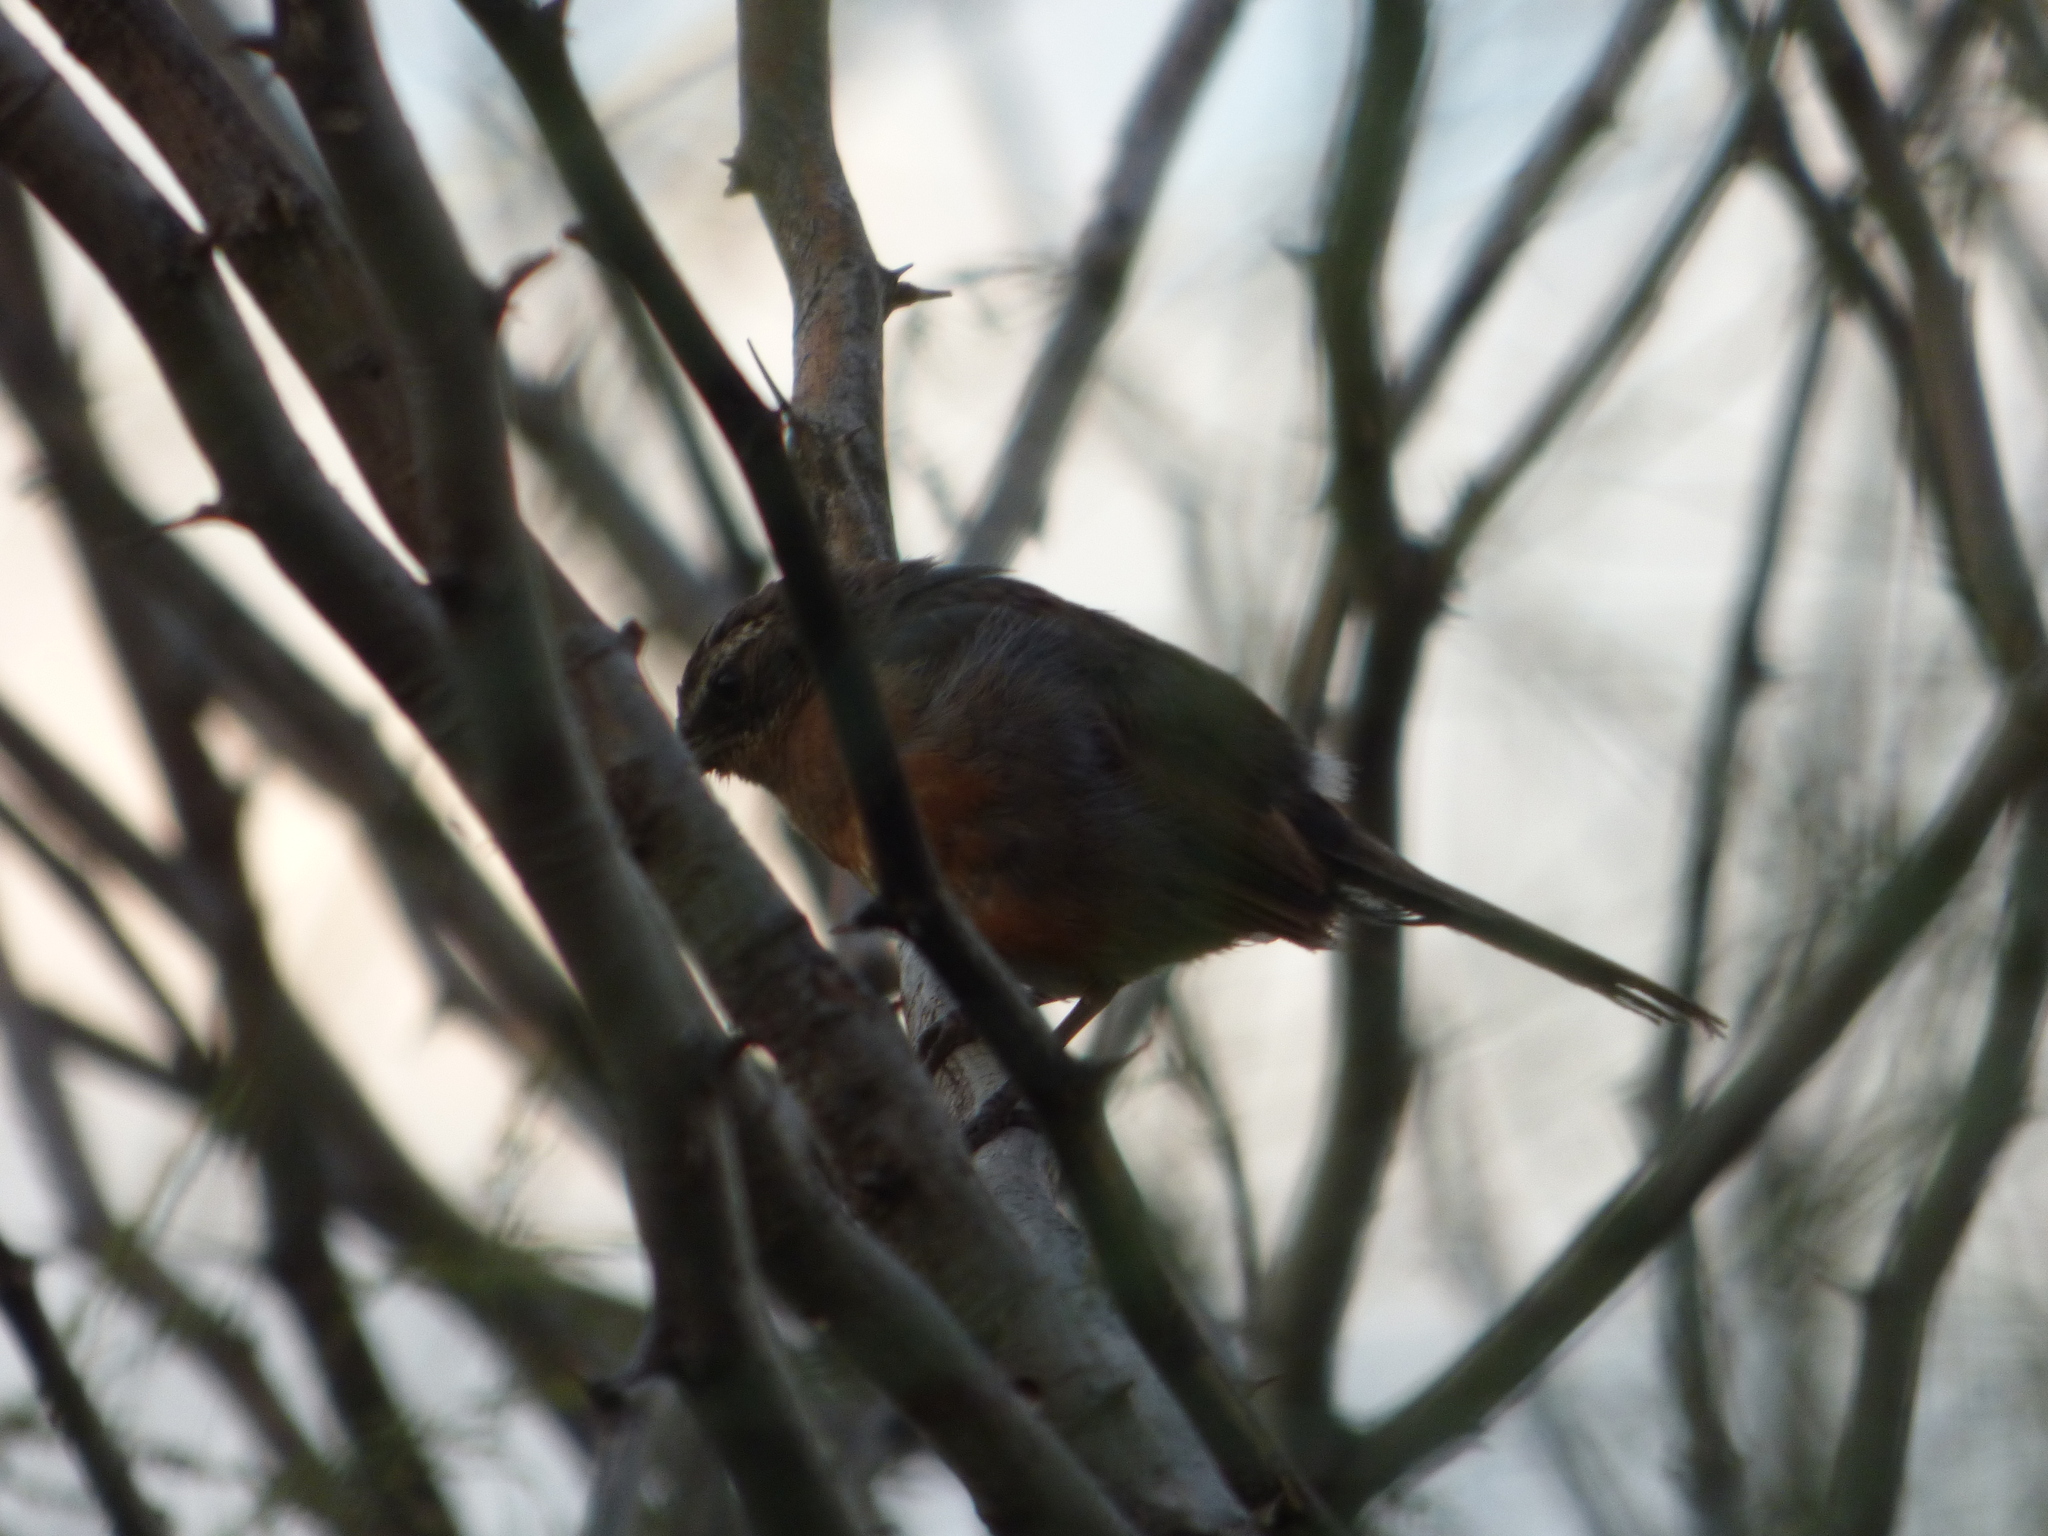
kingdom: Animalia
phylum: Chordata
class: Aves
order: Passeriformes
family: Thraupidae
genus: Poospiza
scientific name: Poospiza nigrorufa
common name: Black-and-rufous warbling finch
